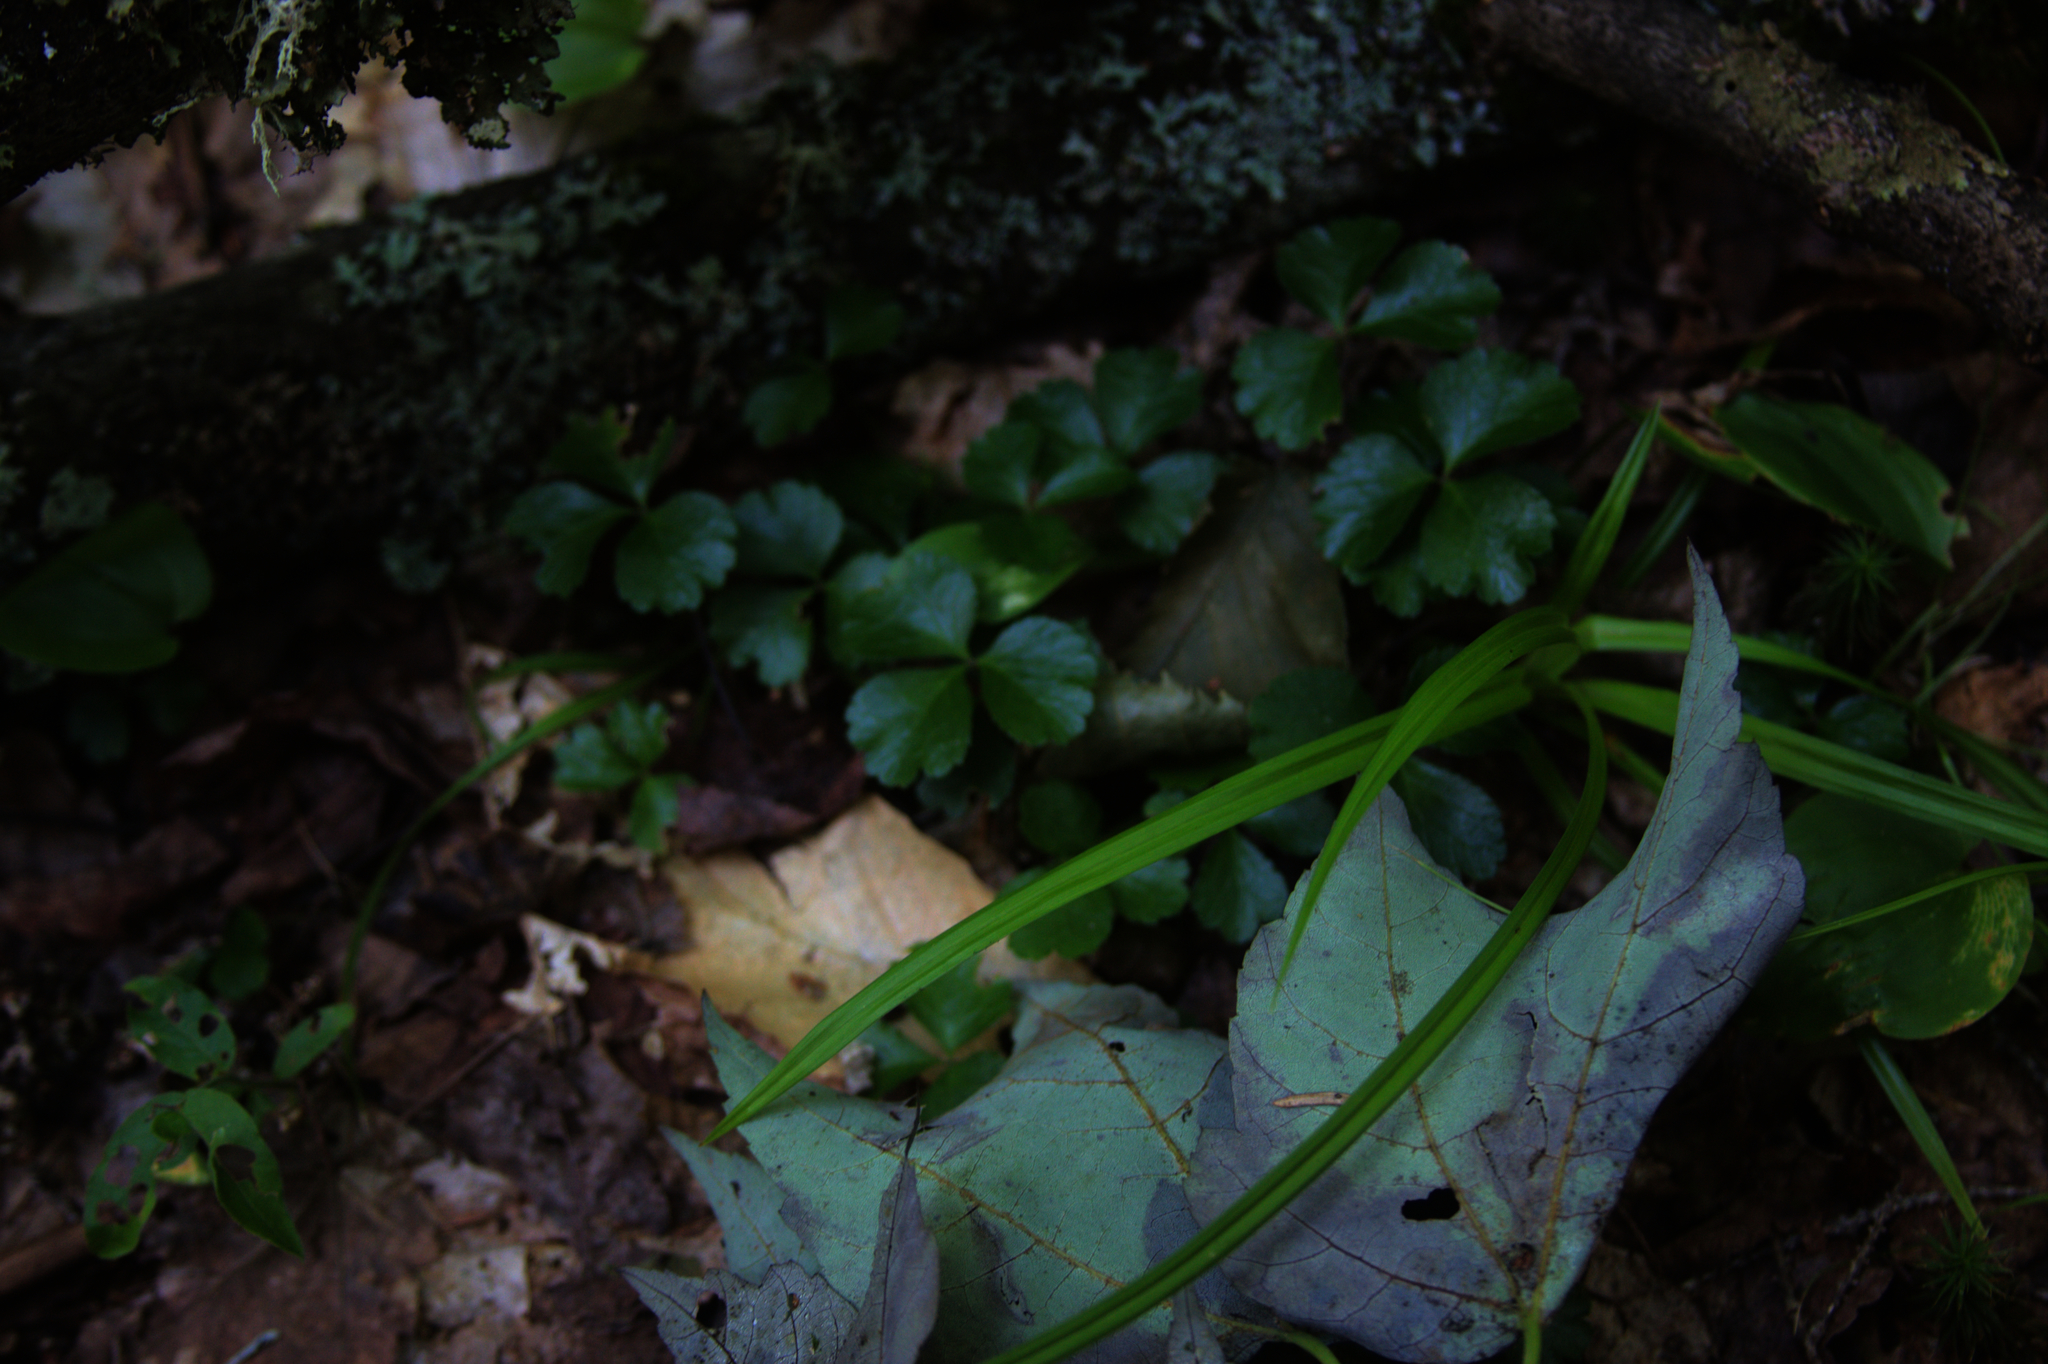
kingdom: Plantae
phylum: Tracheophyta
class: Magnoliopsida
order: Ranunculales
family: Ranunculaceae
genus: Coptis
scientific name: Coptis trifolia
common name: Canker-root
